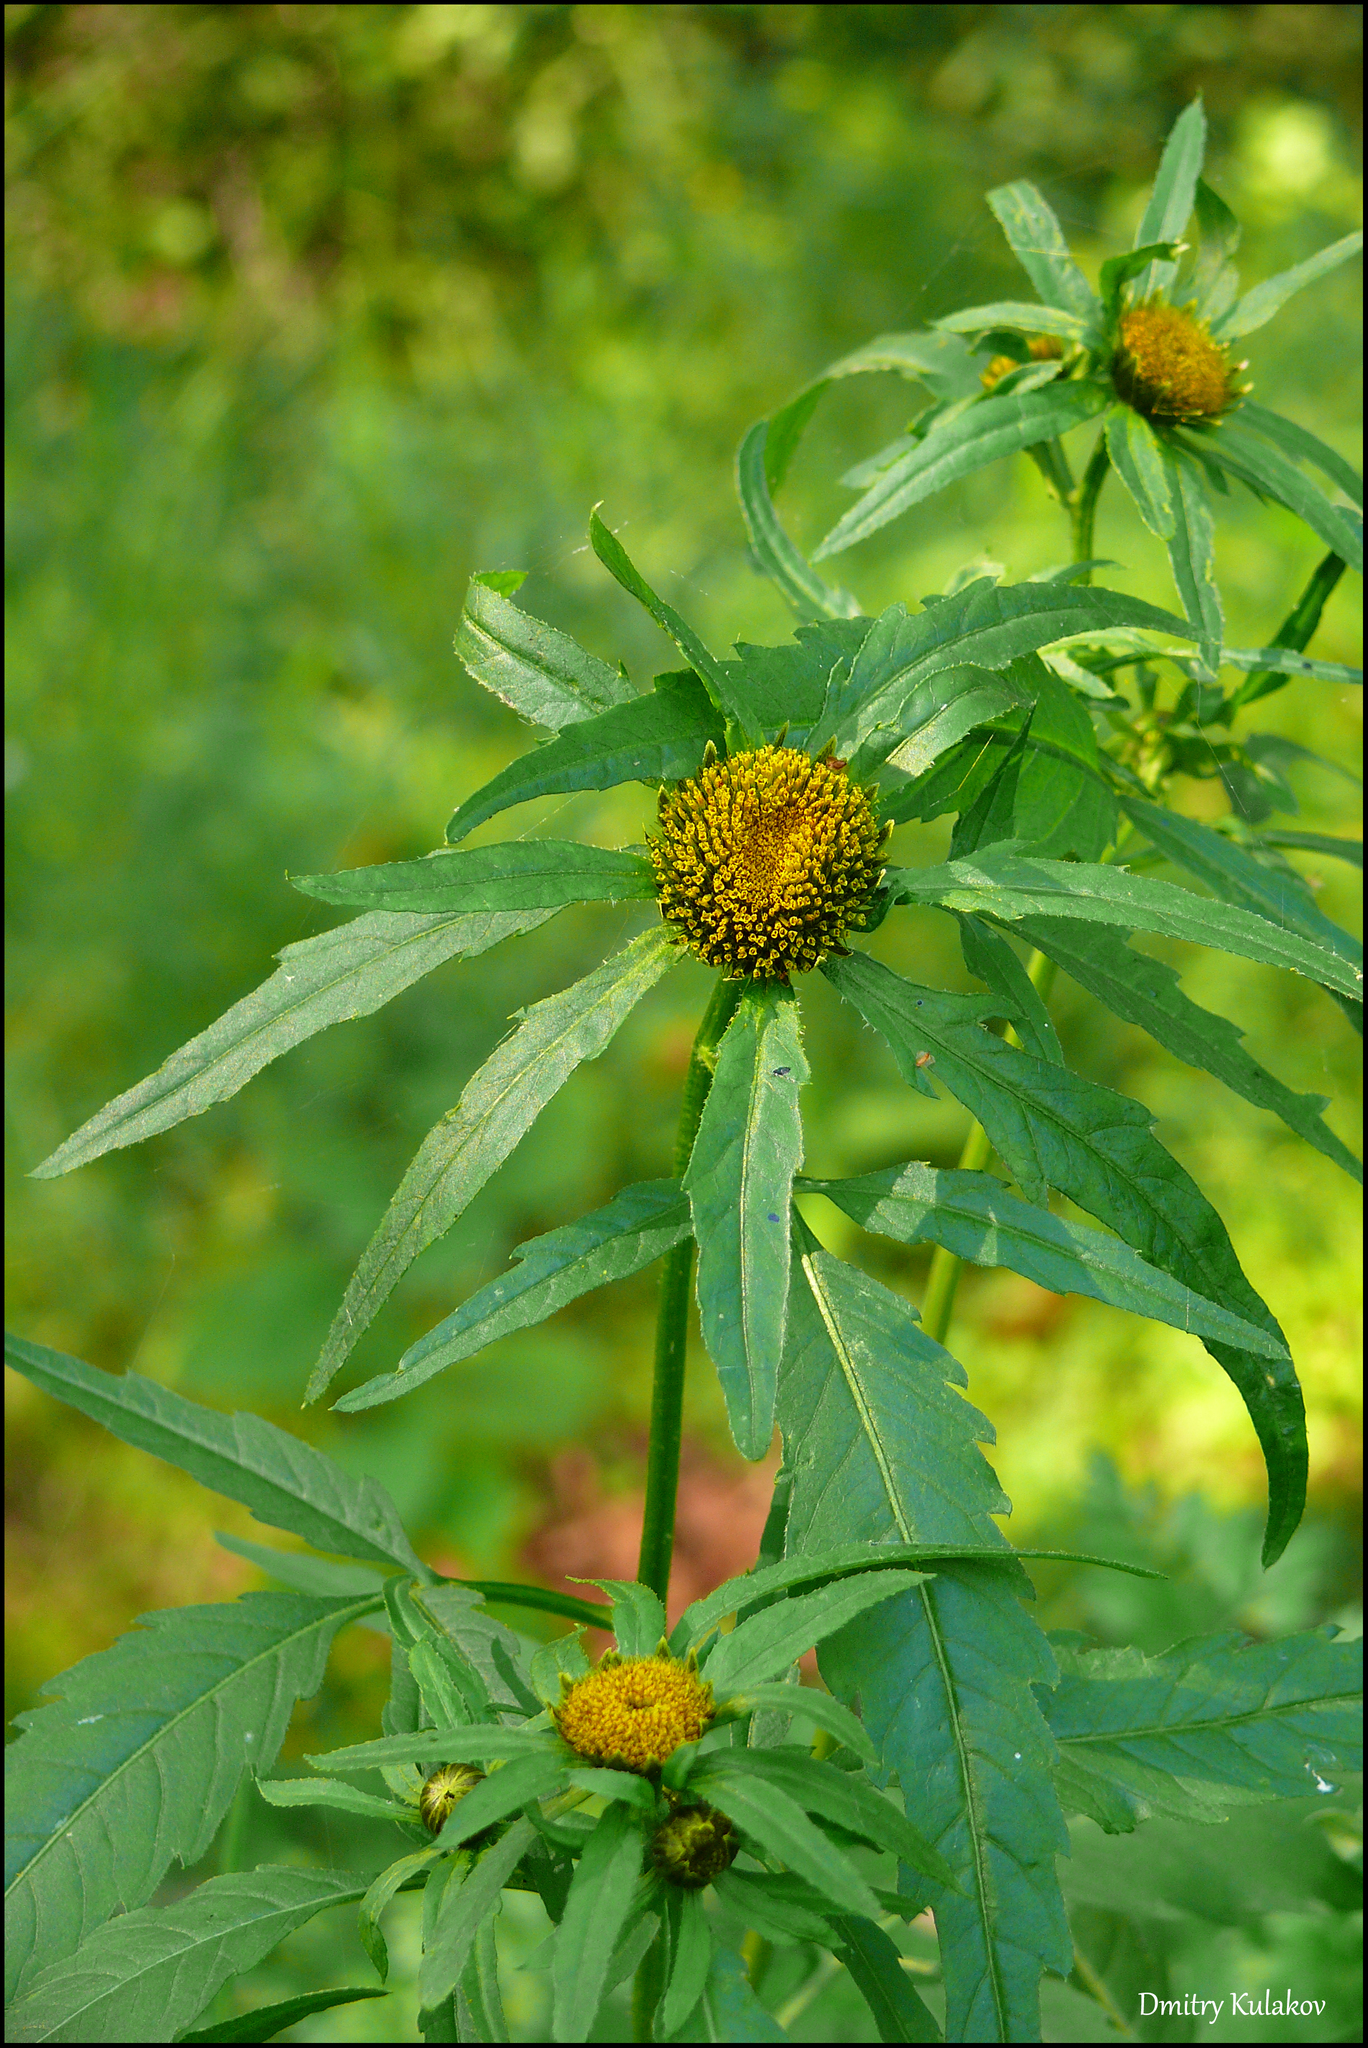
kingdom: Plantae
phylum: Tracheophyta
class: Magnoliopsida
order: Asterales
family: Asteraceae
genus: Bidens
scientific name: Bidens radiata
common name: Radiating bur-marigold
